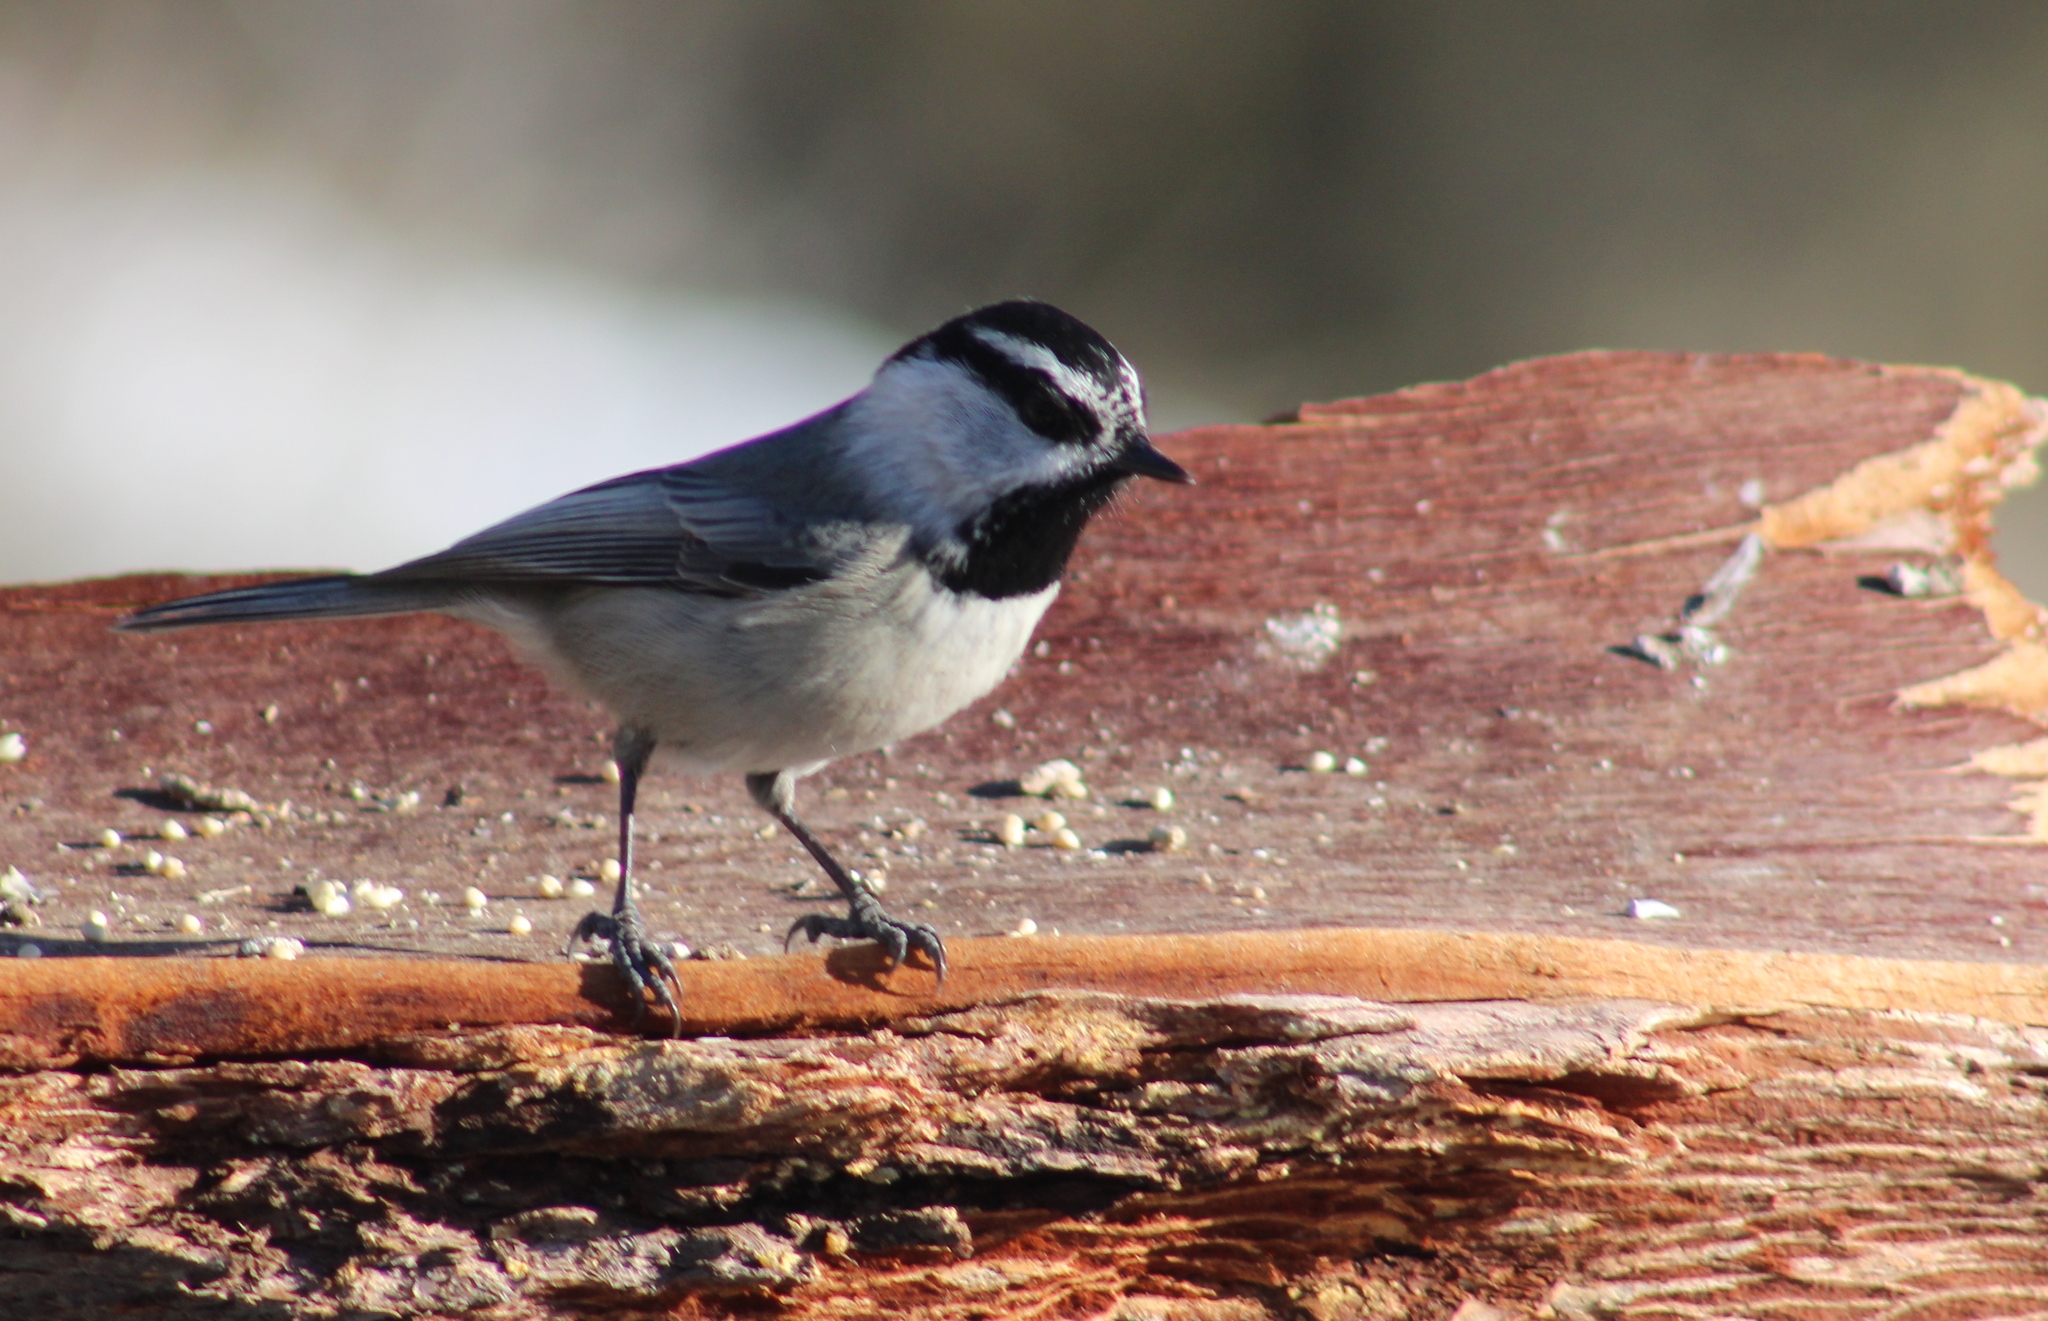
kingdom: Animalia
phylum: Chordata
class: Aves
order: Passeriformes
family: Paridae
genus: Poecile
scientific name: Poecile gambeli
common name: Mountain chickadee
